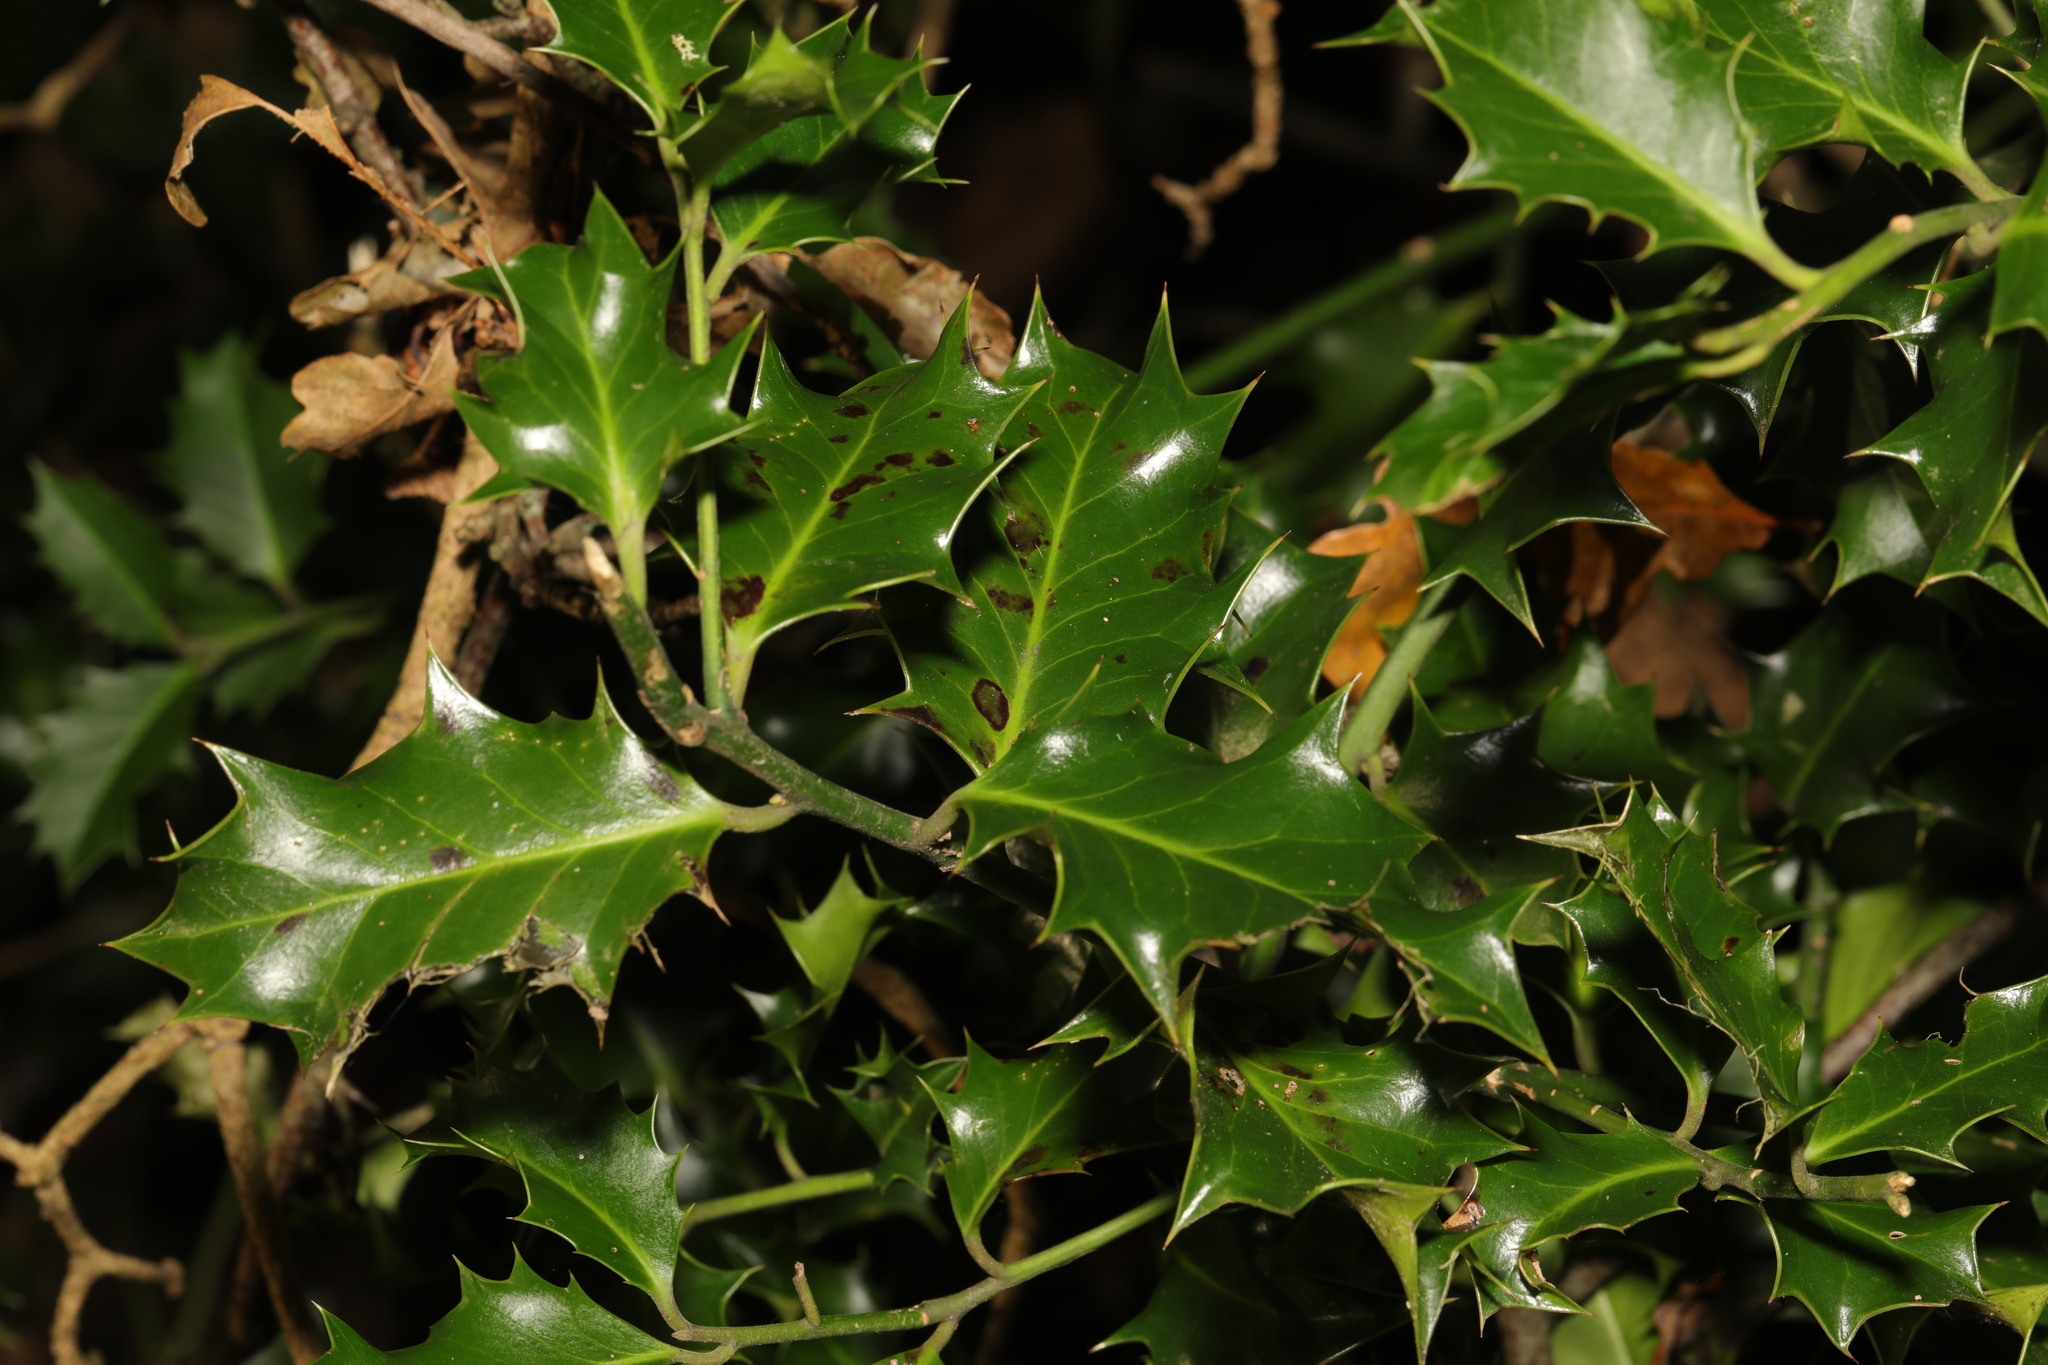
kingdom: Plantae
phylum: Tracheophyta
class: Magnoliopsida
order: Aquifoliales
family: Aquifoliaceae
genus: Ilex
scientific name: Ilex aquifolium
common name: English holly
